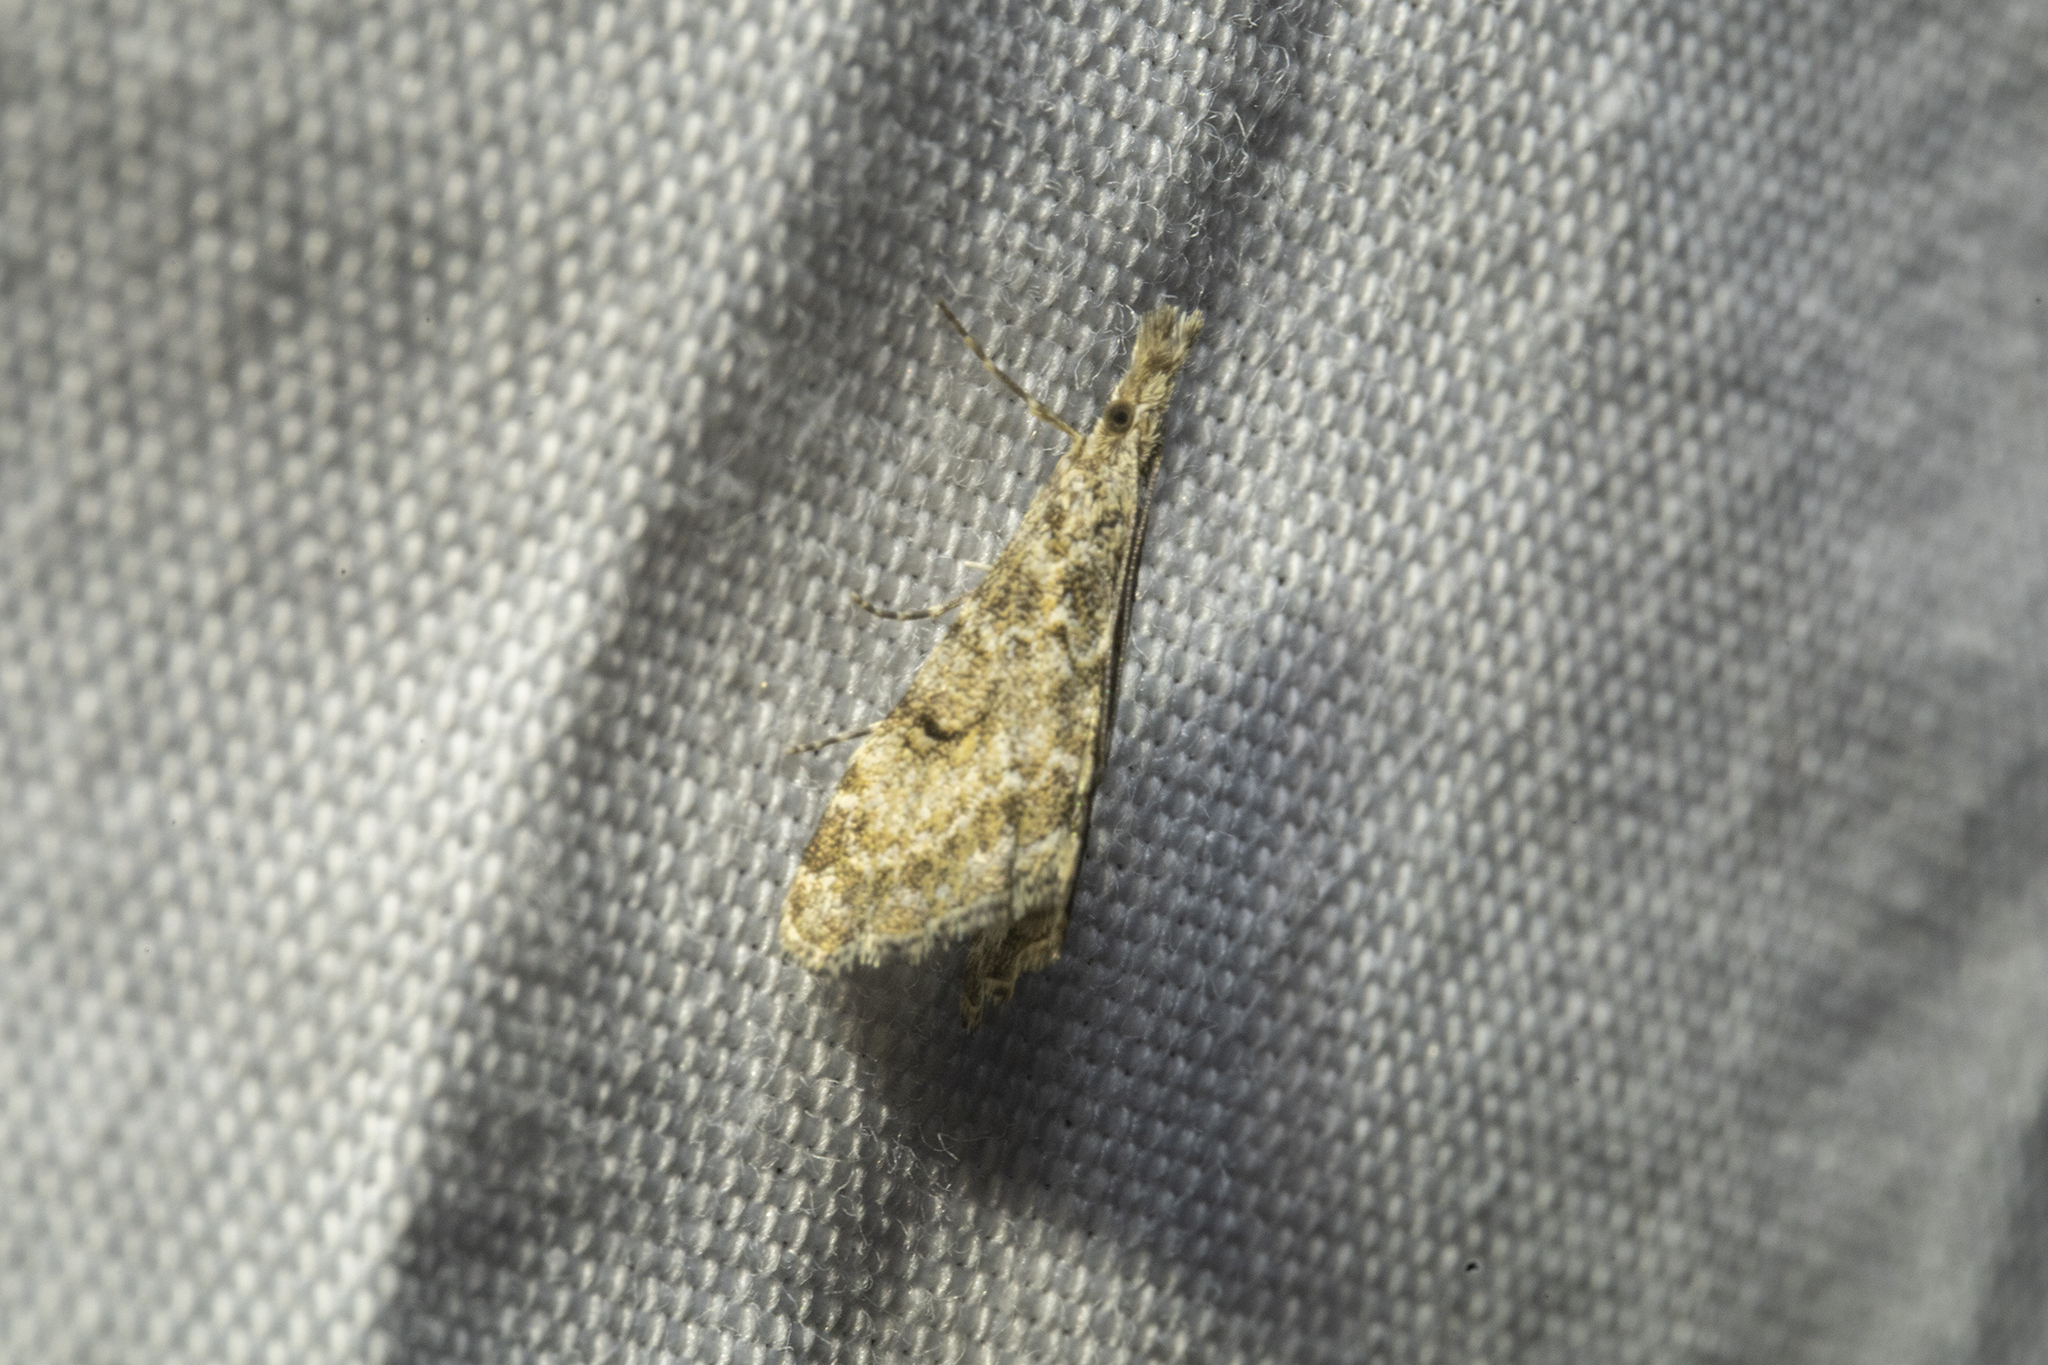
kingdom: Animalia
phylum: Arthropoda
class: Insecta
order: Lepidoptera
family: Crambidae
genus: Glaucocharis
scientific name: Glaucocharis elaina
